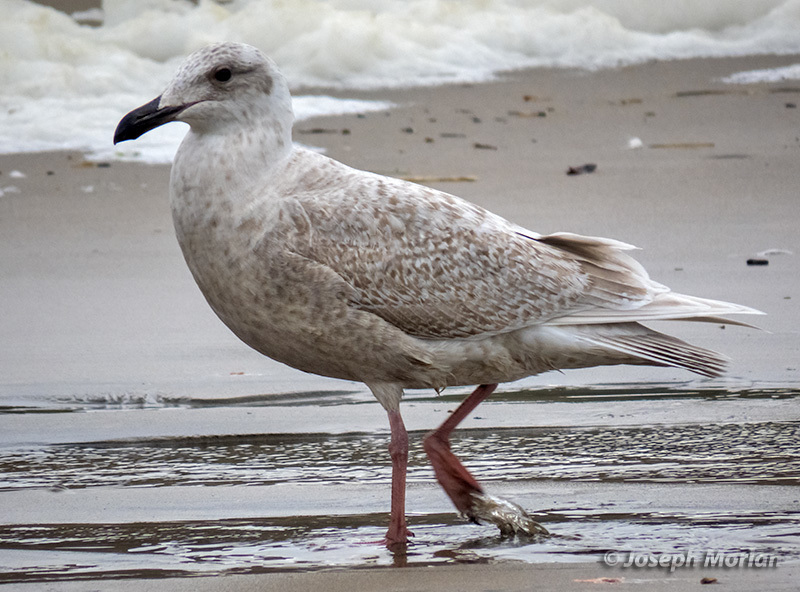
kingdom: Animalia
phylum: Chordata
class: Aves
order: Charadriiformes
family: Laridae
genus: Larus
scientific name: Larus glaucescens
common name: Glaucous-winged gull
